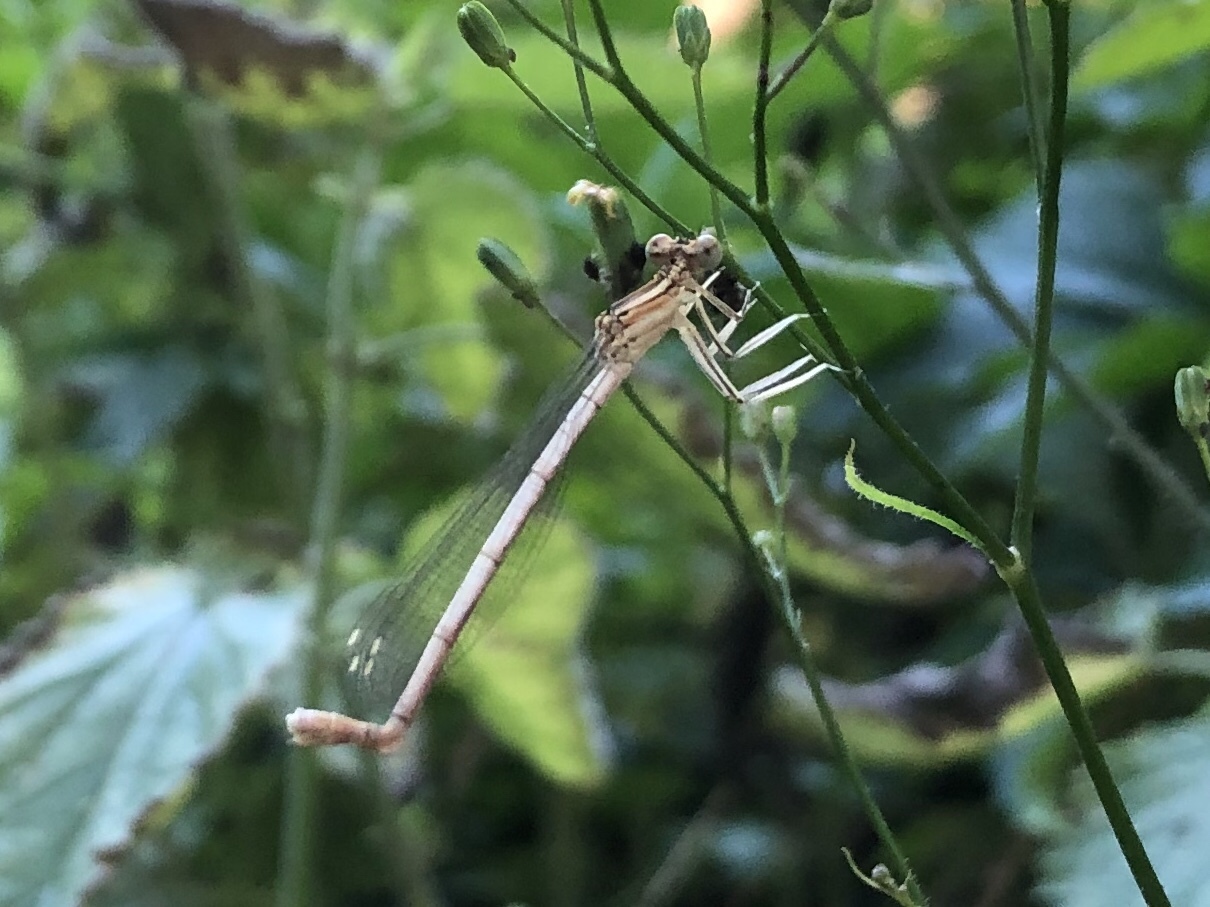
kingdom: Animalia
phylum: Arthropoda
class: Insecta
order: Odonata
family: Platycnemididae
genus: Platycnemis
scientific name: Platycnemis pennipes
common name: White-legged damselfly
